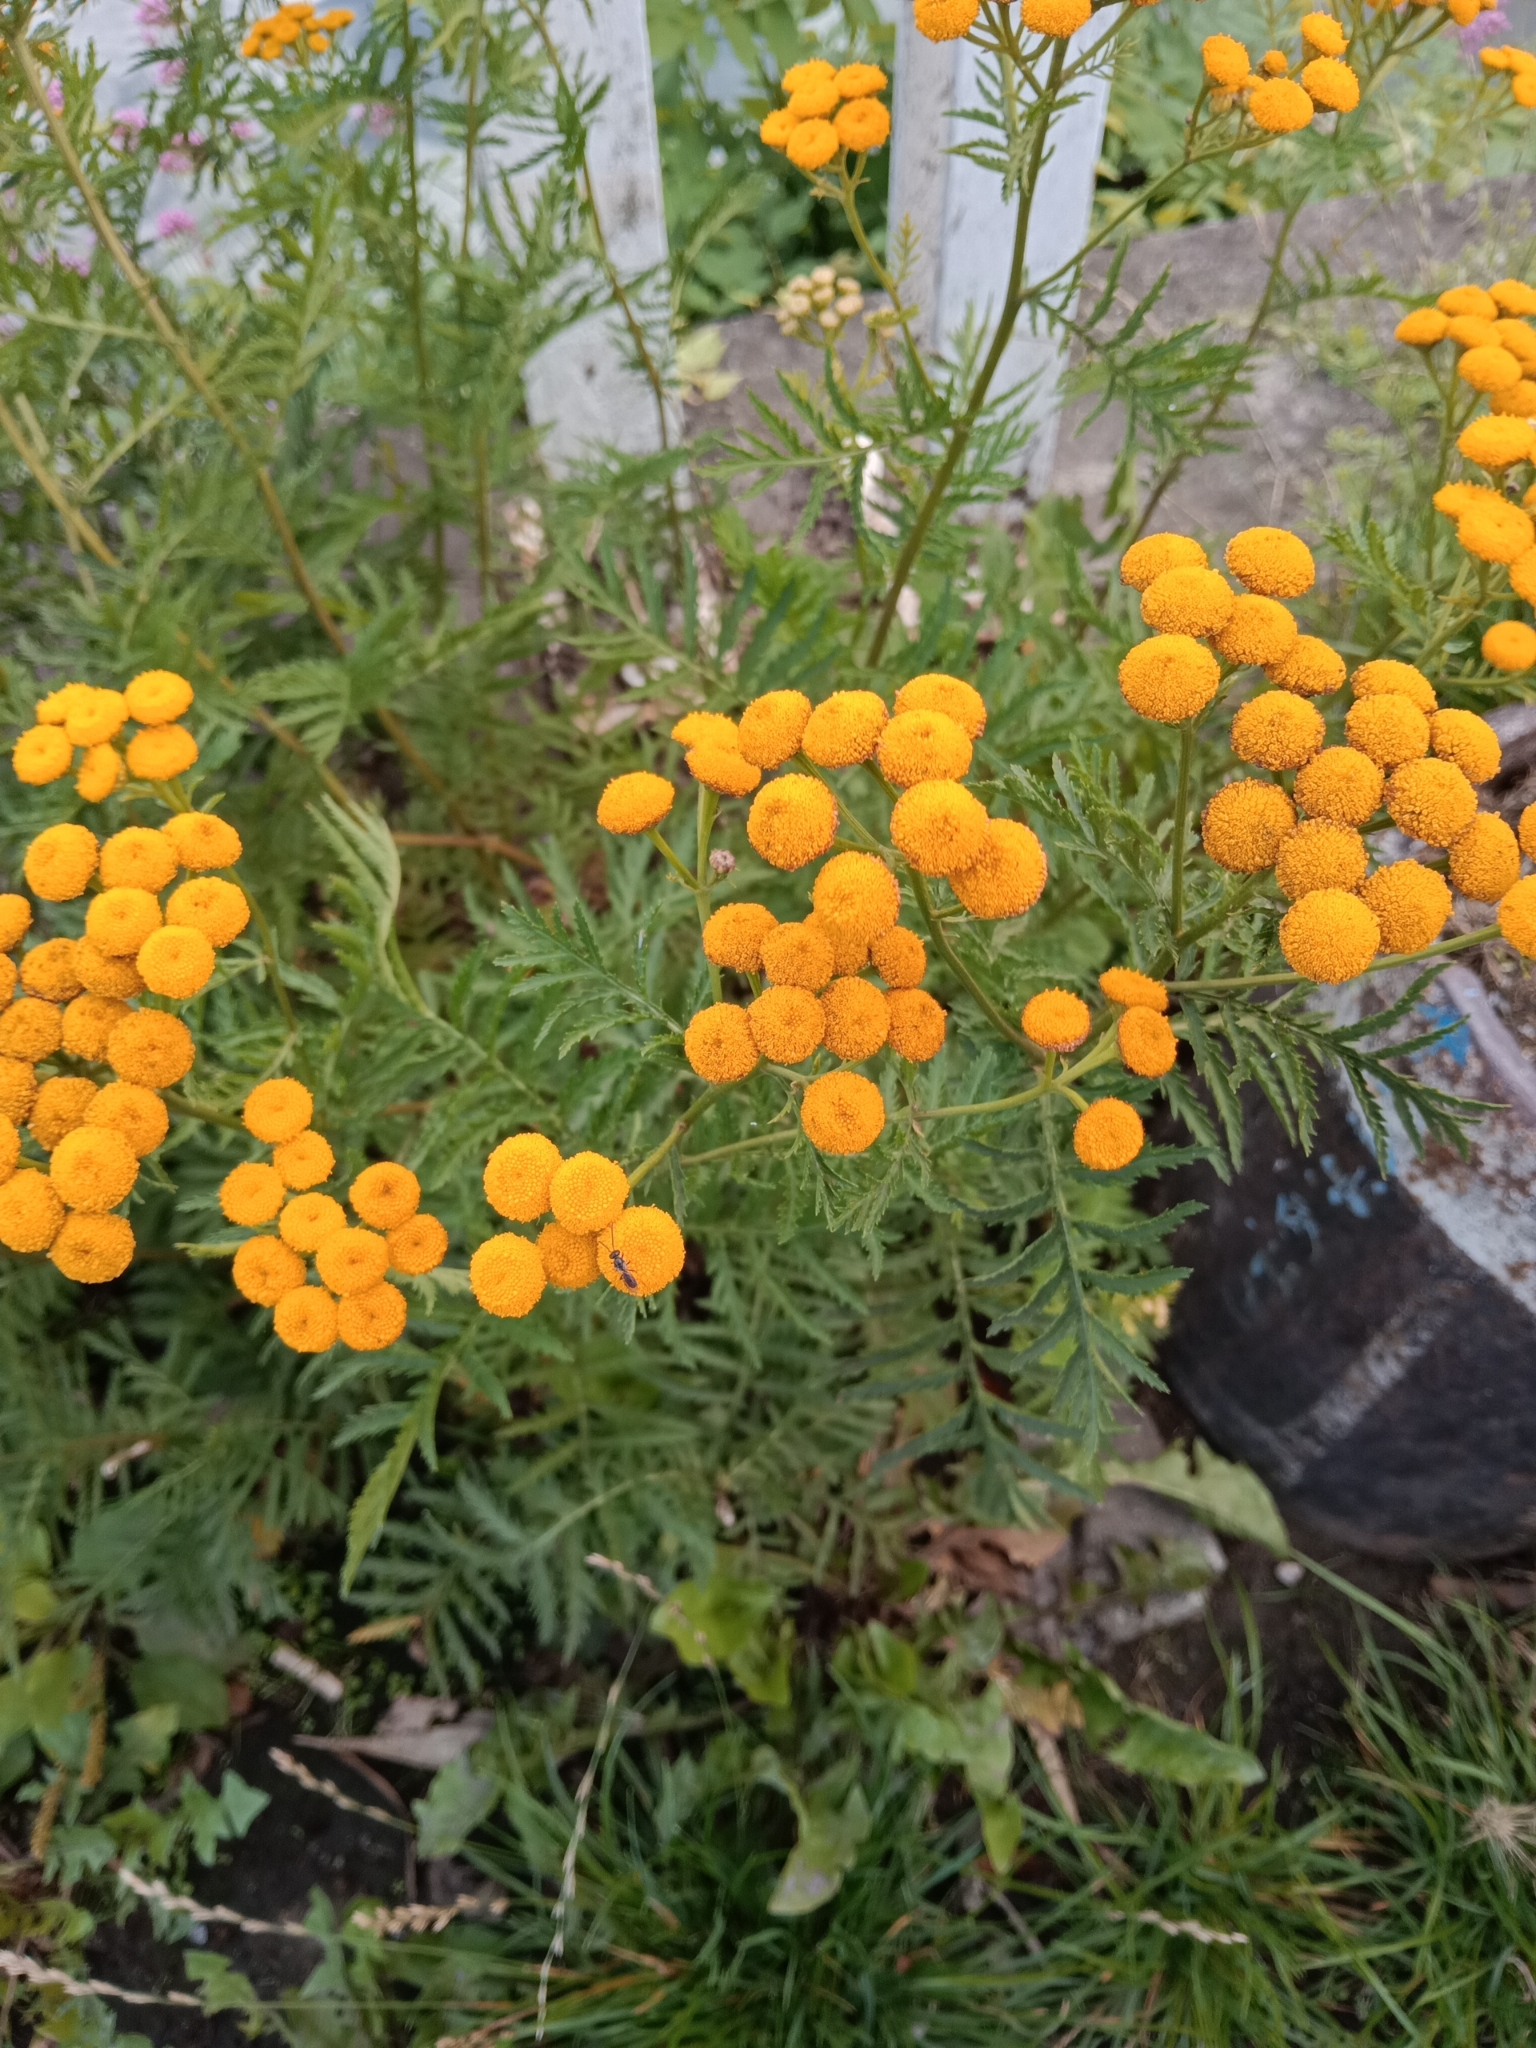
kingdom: Plantae
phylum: Tracheophyta
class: Magnoliopsida
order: Asterales
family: Asteraceae
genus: Tanacetum
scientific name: Tanacetum vulgare
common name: Common tansy
